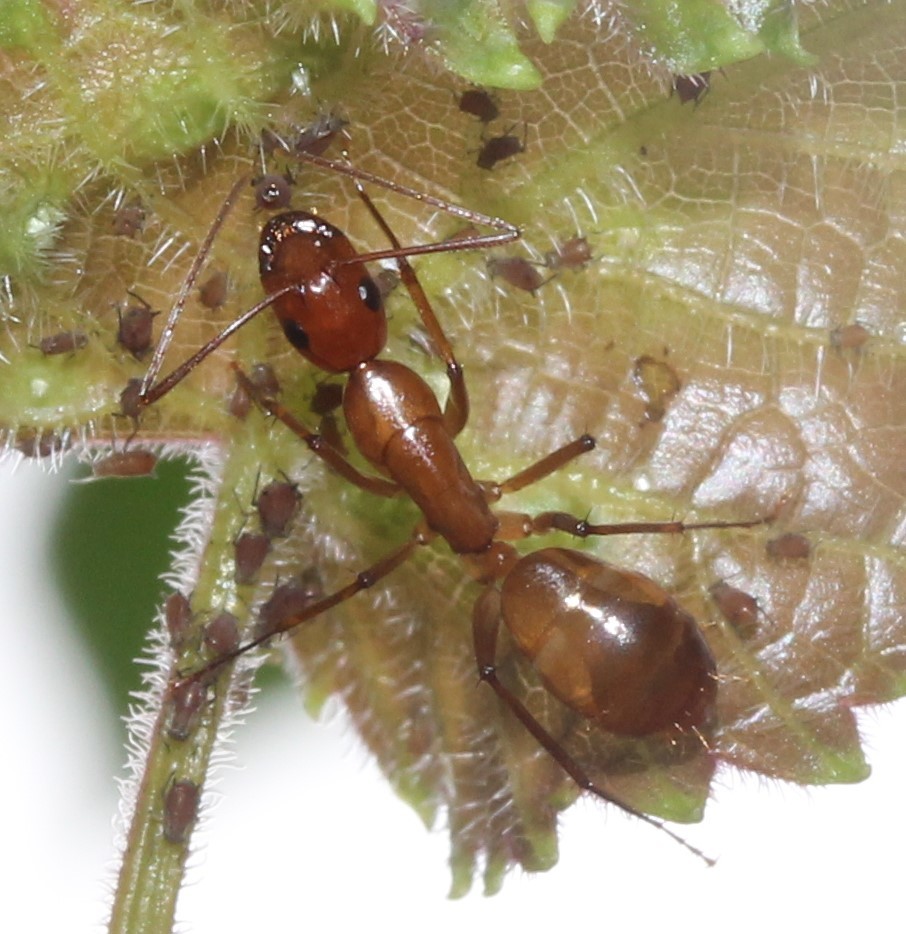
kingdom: Animalia
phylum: Arthropoda
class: Insecta
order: Hymenoptera
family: Formicidae
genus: Camponotus
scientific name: Camponotus castaneus
